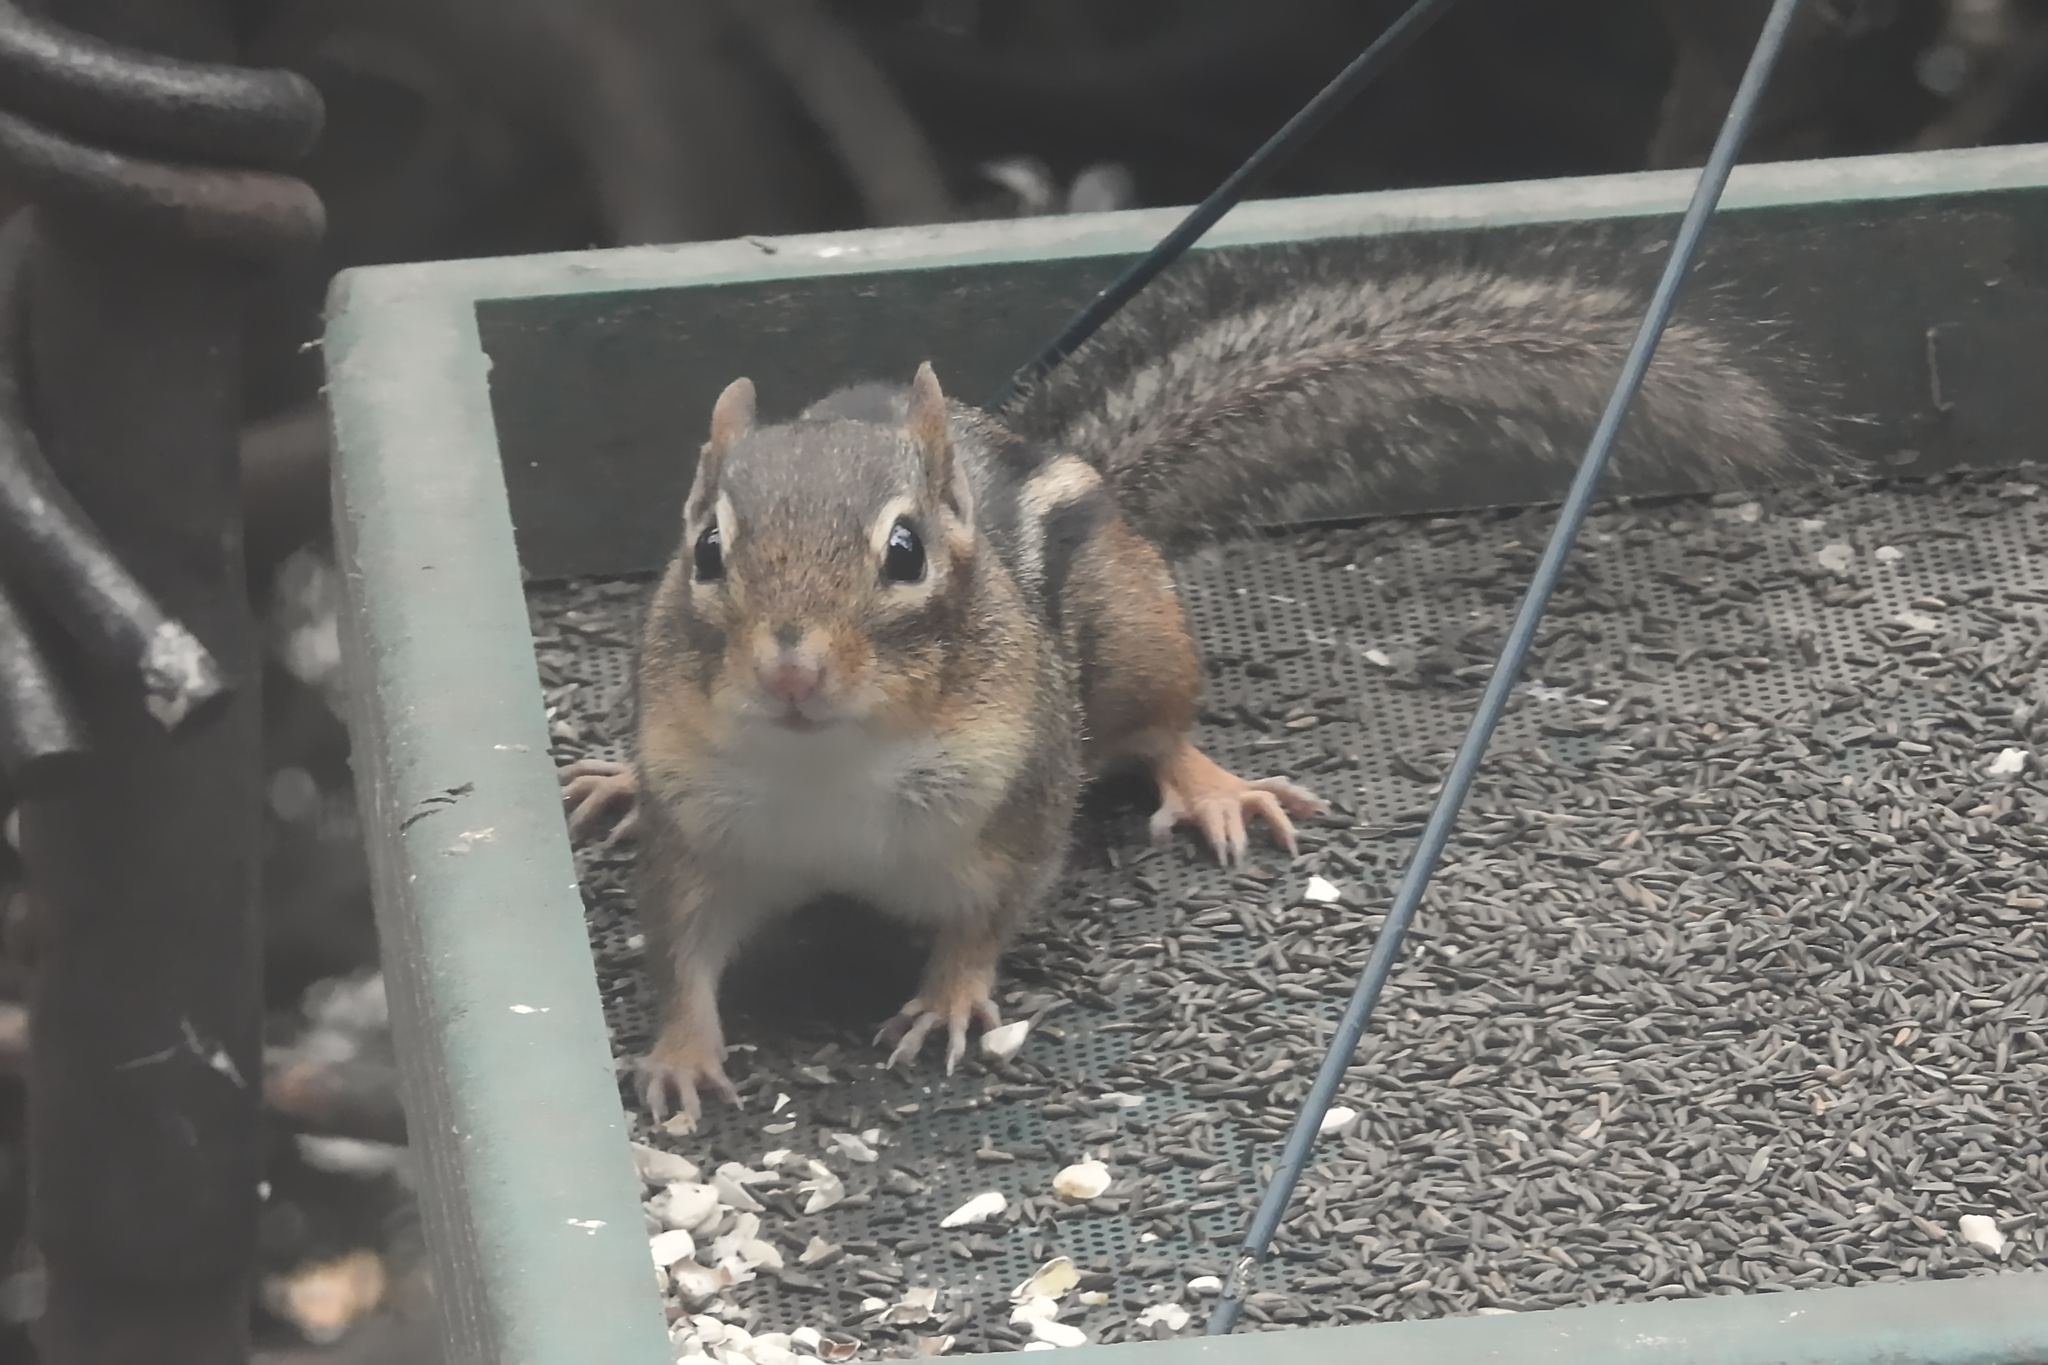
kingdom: Animalia
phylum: Chordata
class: Mammalia
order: Rodentia
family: Sciuridae
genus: Tamias
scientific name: Tamias striatus
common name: Eastern chipmunk
